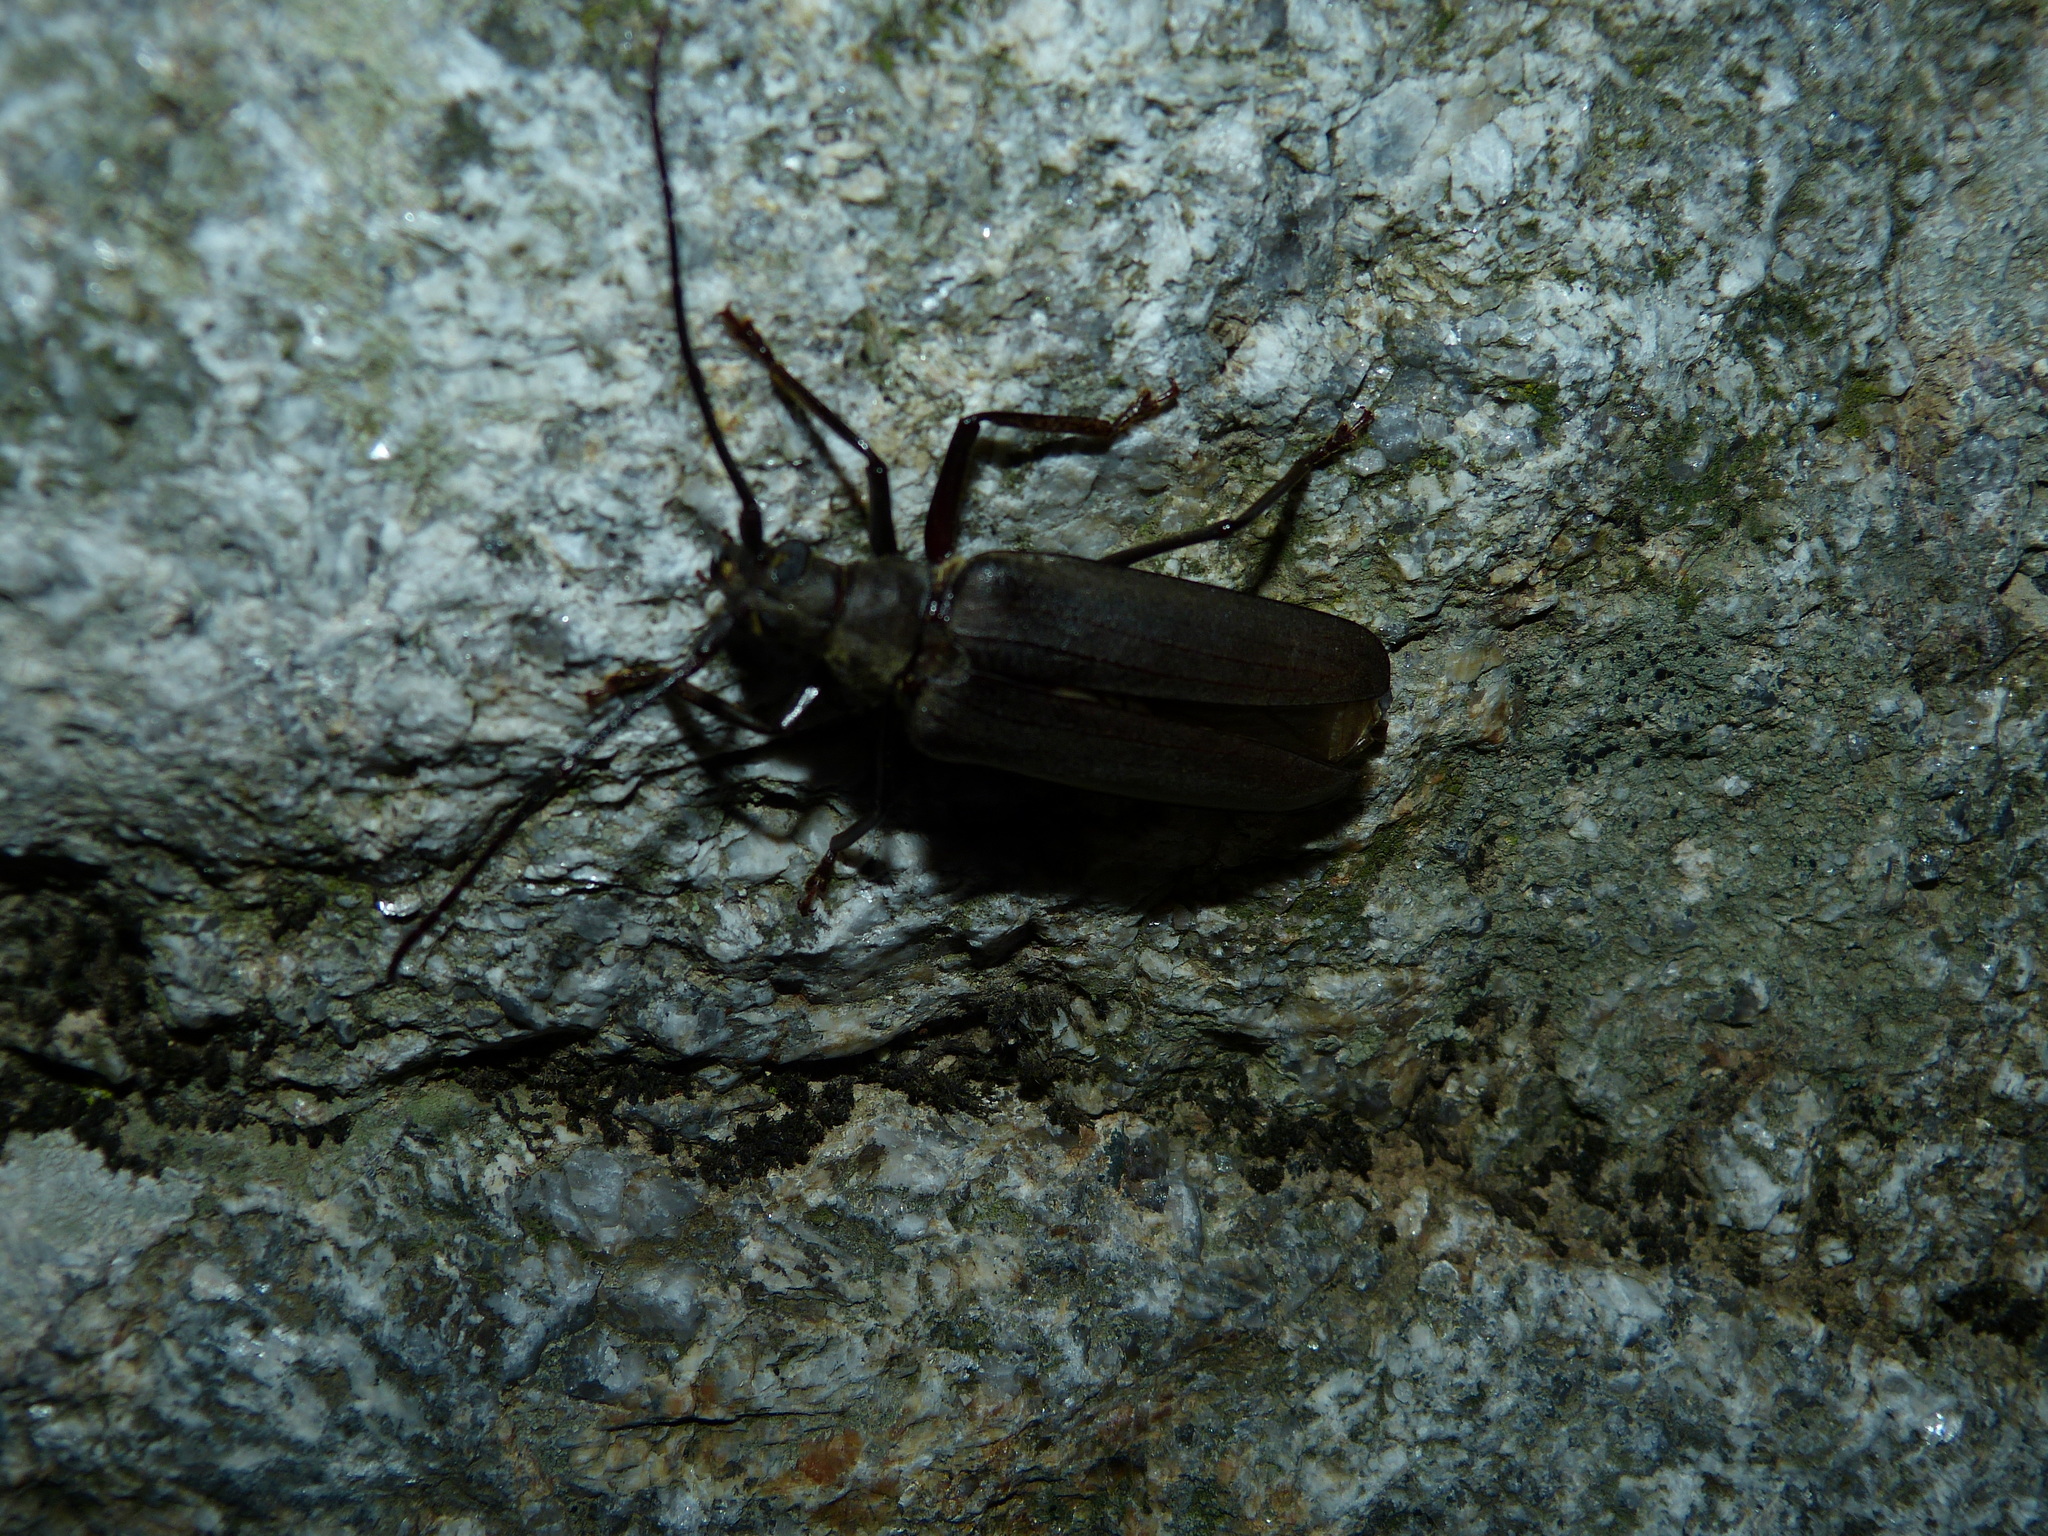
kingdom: Animalia
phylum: Arthropoda
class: Insecta
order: Coleoptera
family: Cerambycidae
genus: Aegosoma
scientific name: Aegosoma scabricorne
